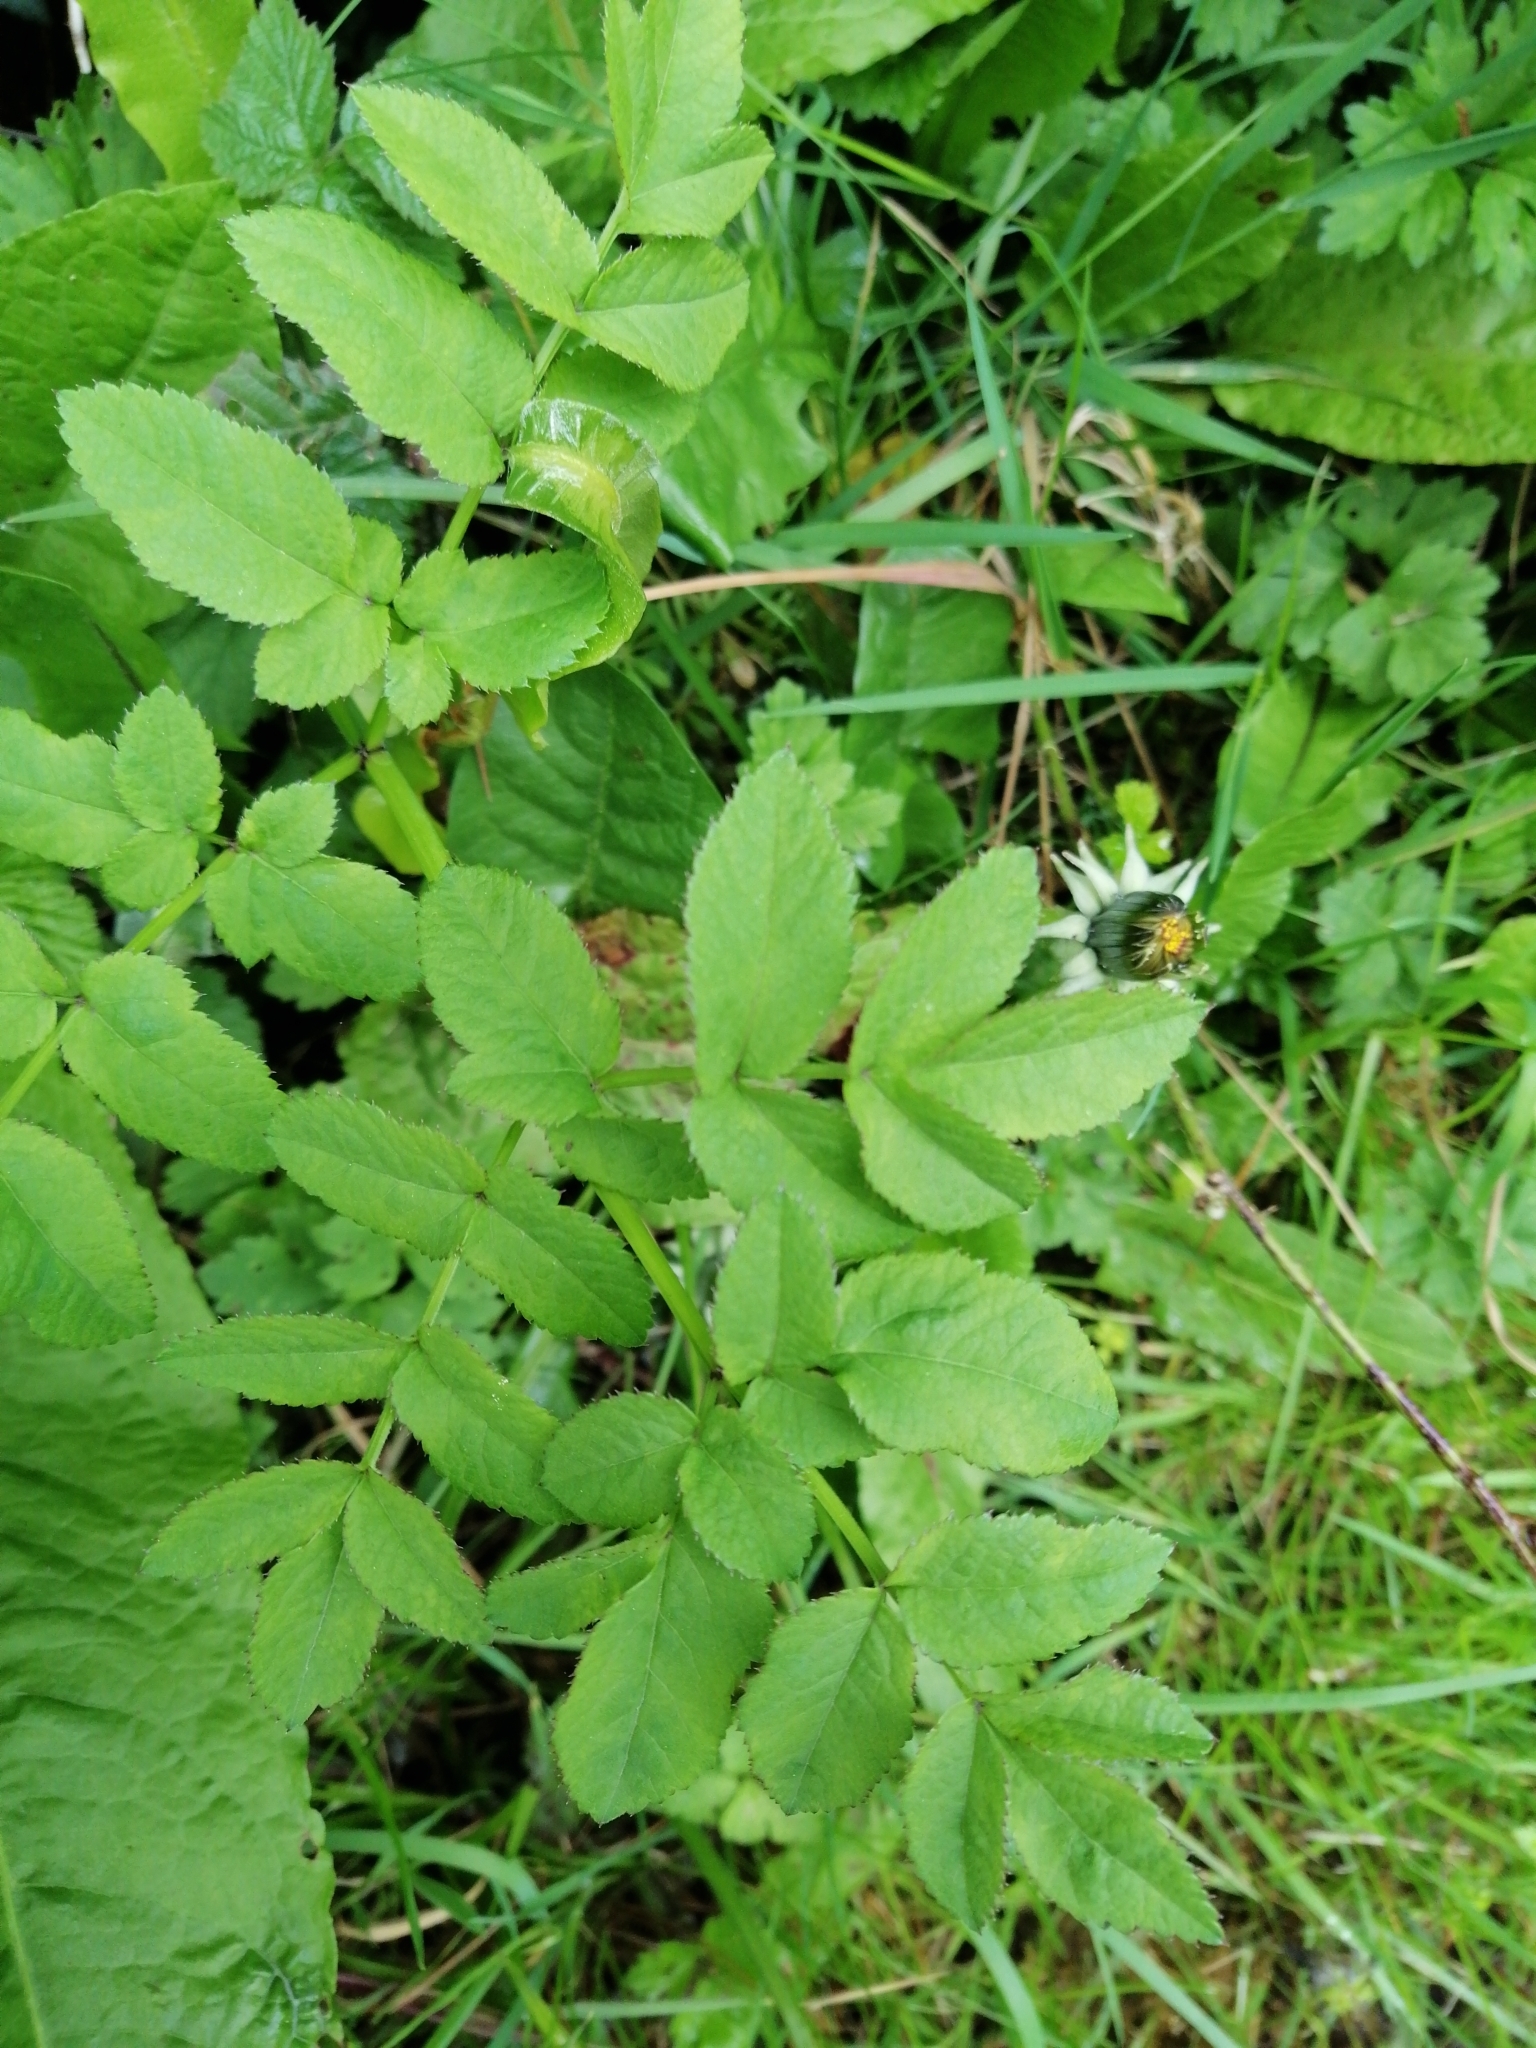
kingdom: Plantae
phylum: Tracheophyta
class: Magnoliopsida
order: Apiales
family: Apiaceae
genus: Angelica
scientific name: Angelica sylvestris
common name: Wild angelica
